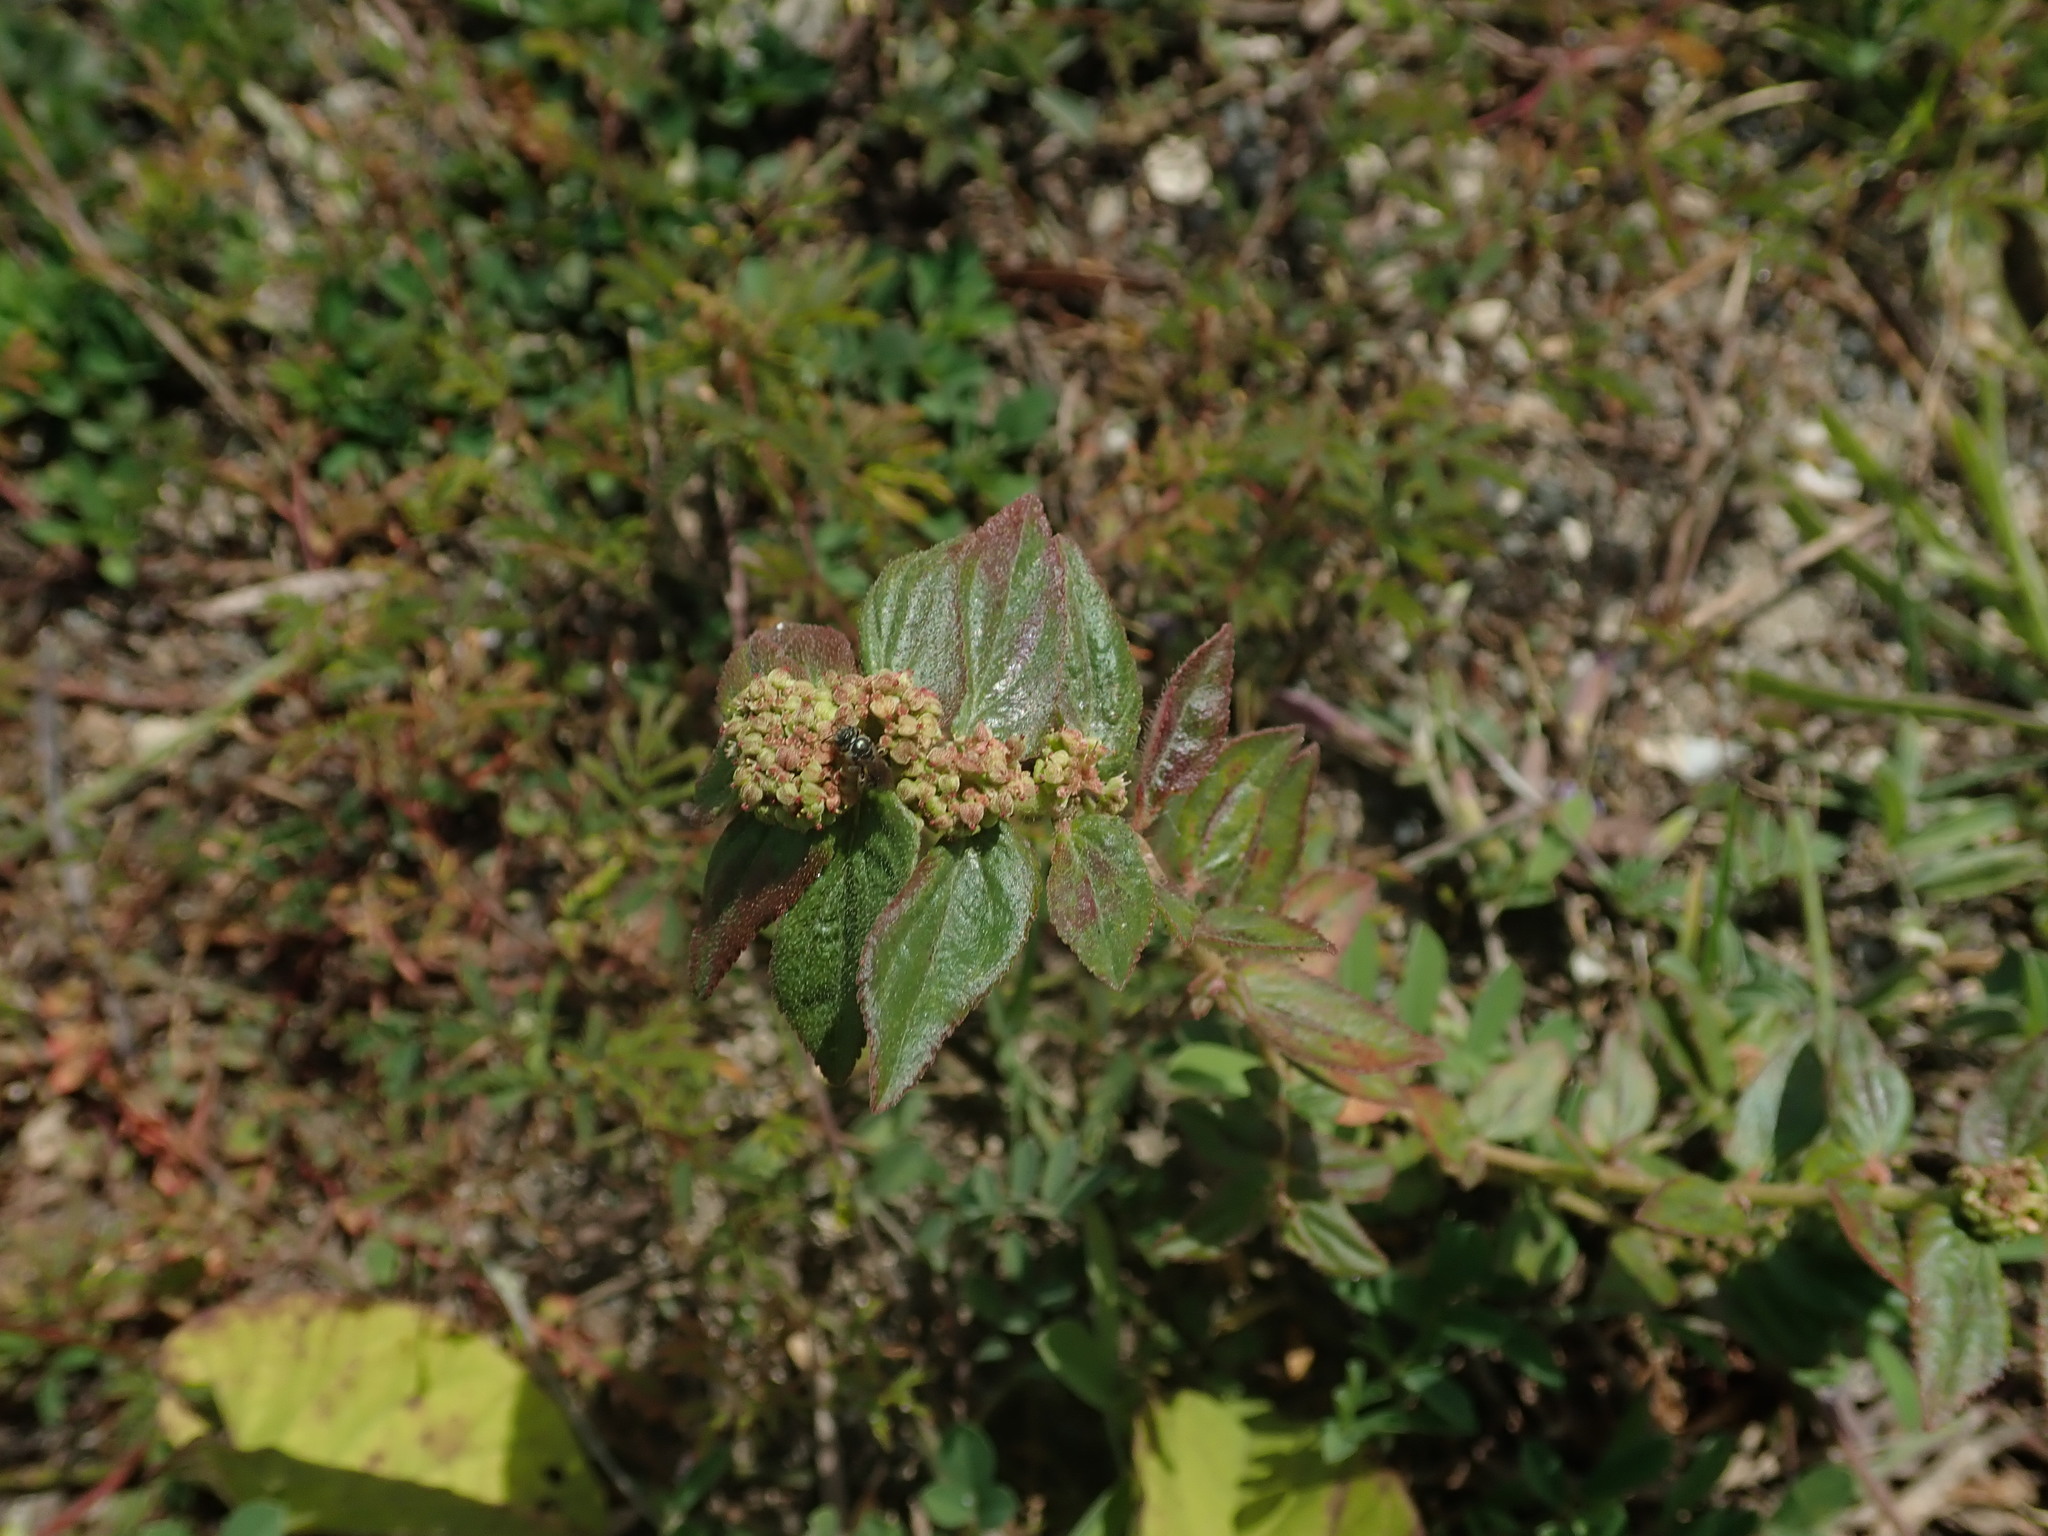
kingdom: Plantae
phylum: Tracheophyta
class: Magnoliopsida
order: Malpighiales
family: Euphorbiaceae
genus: Euphorbia
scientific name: Euphorbia hirta
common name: Pillpod sandmat
